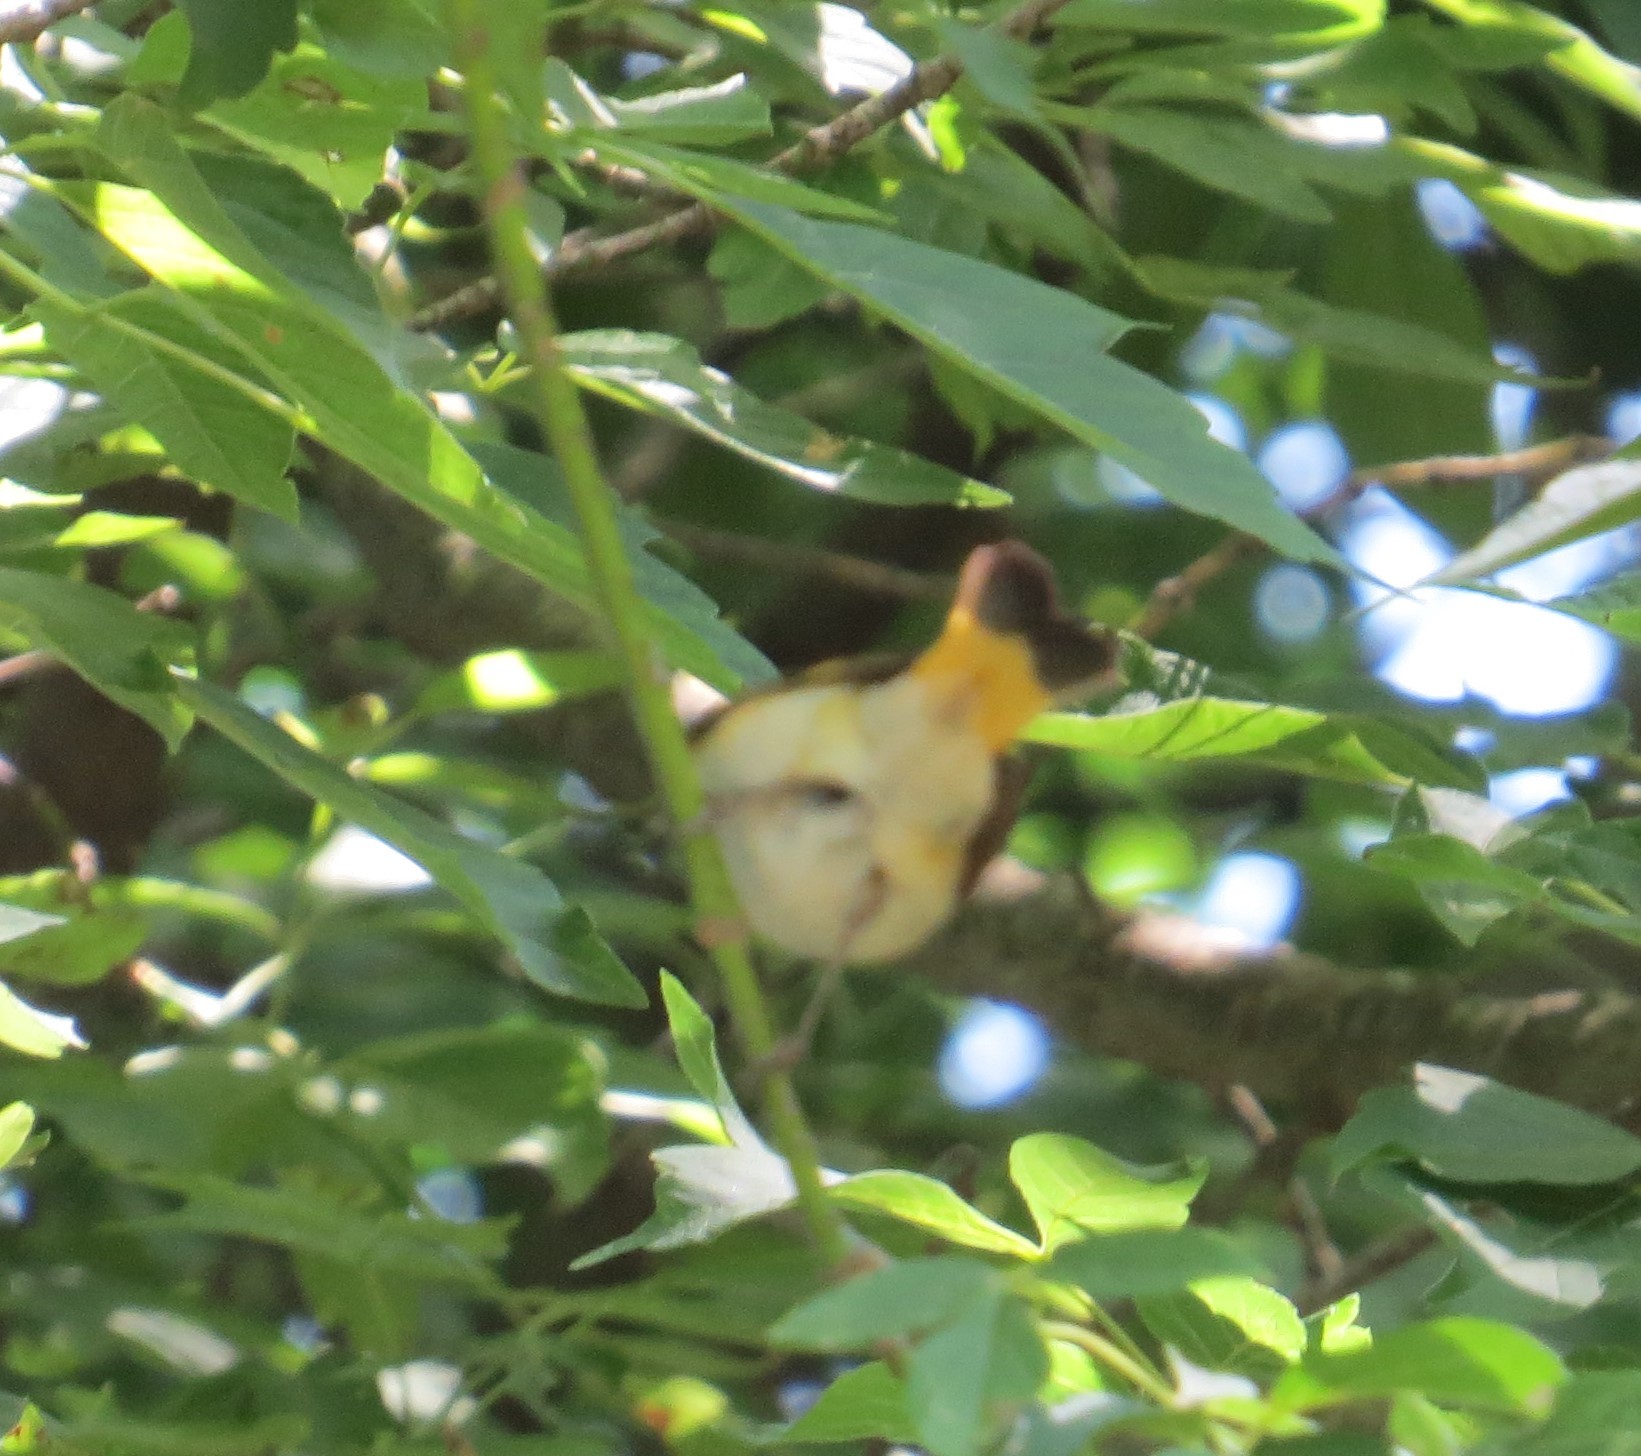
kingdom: Animalia
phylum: Chordata
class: Aves
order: Passeriformes
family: Parulidae
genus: Setophaga
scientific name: Setophaga ruticilla
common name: American redstart
